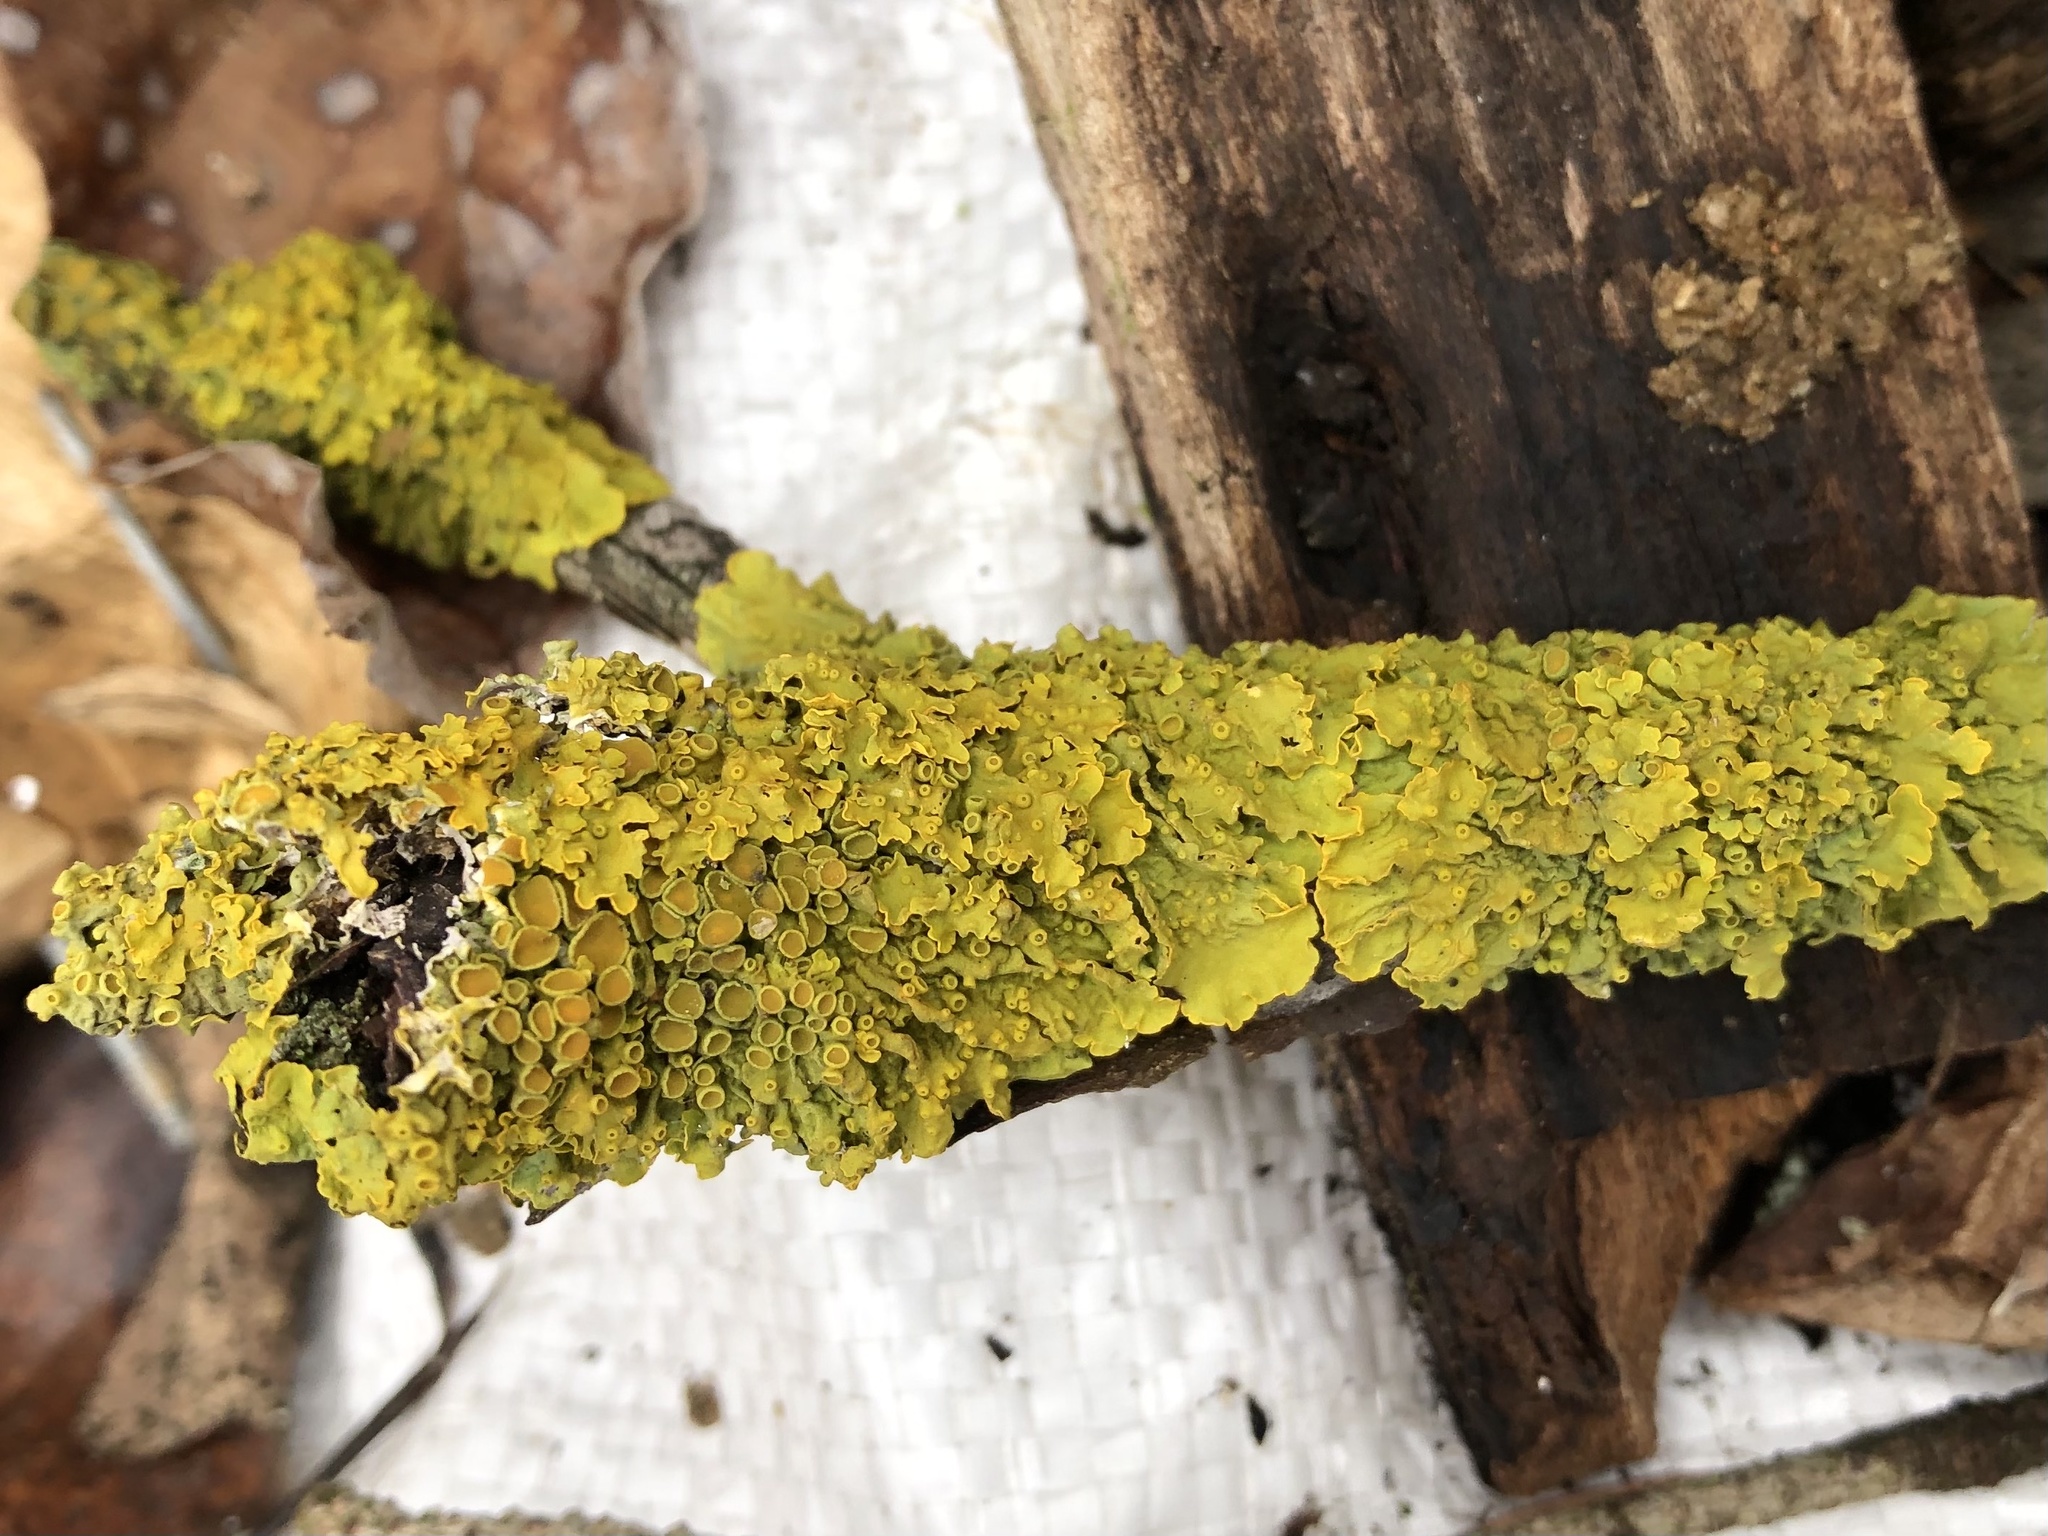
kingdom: Fungi
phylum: Ascomycota
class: Lecanoromycetes
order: Teloschistales
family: Teloschistaceae
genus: Xanthoria
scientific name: Xanthoria parietina
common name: Common orange lichen
